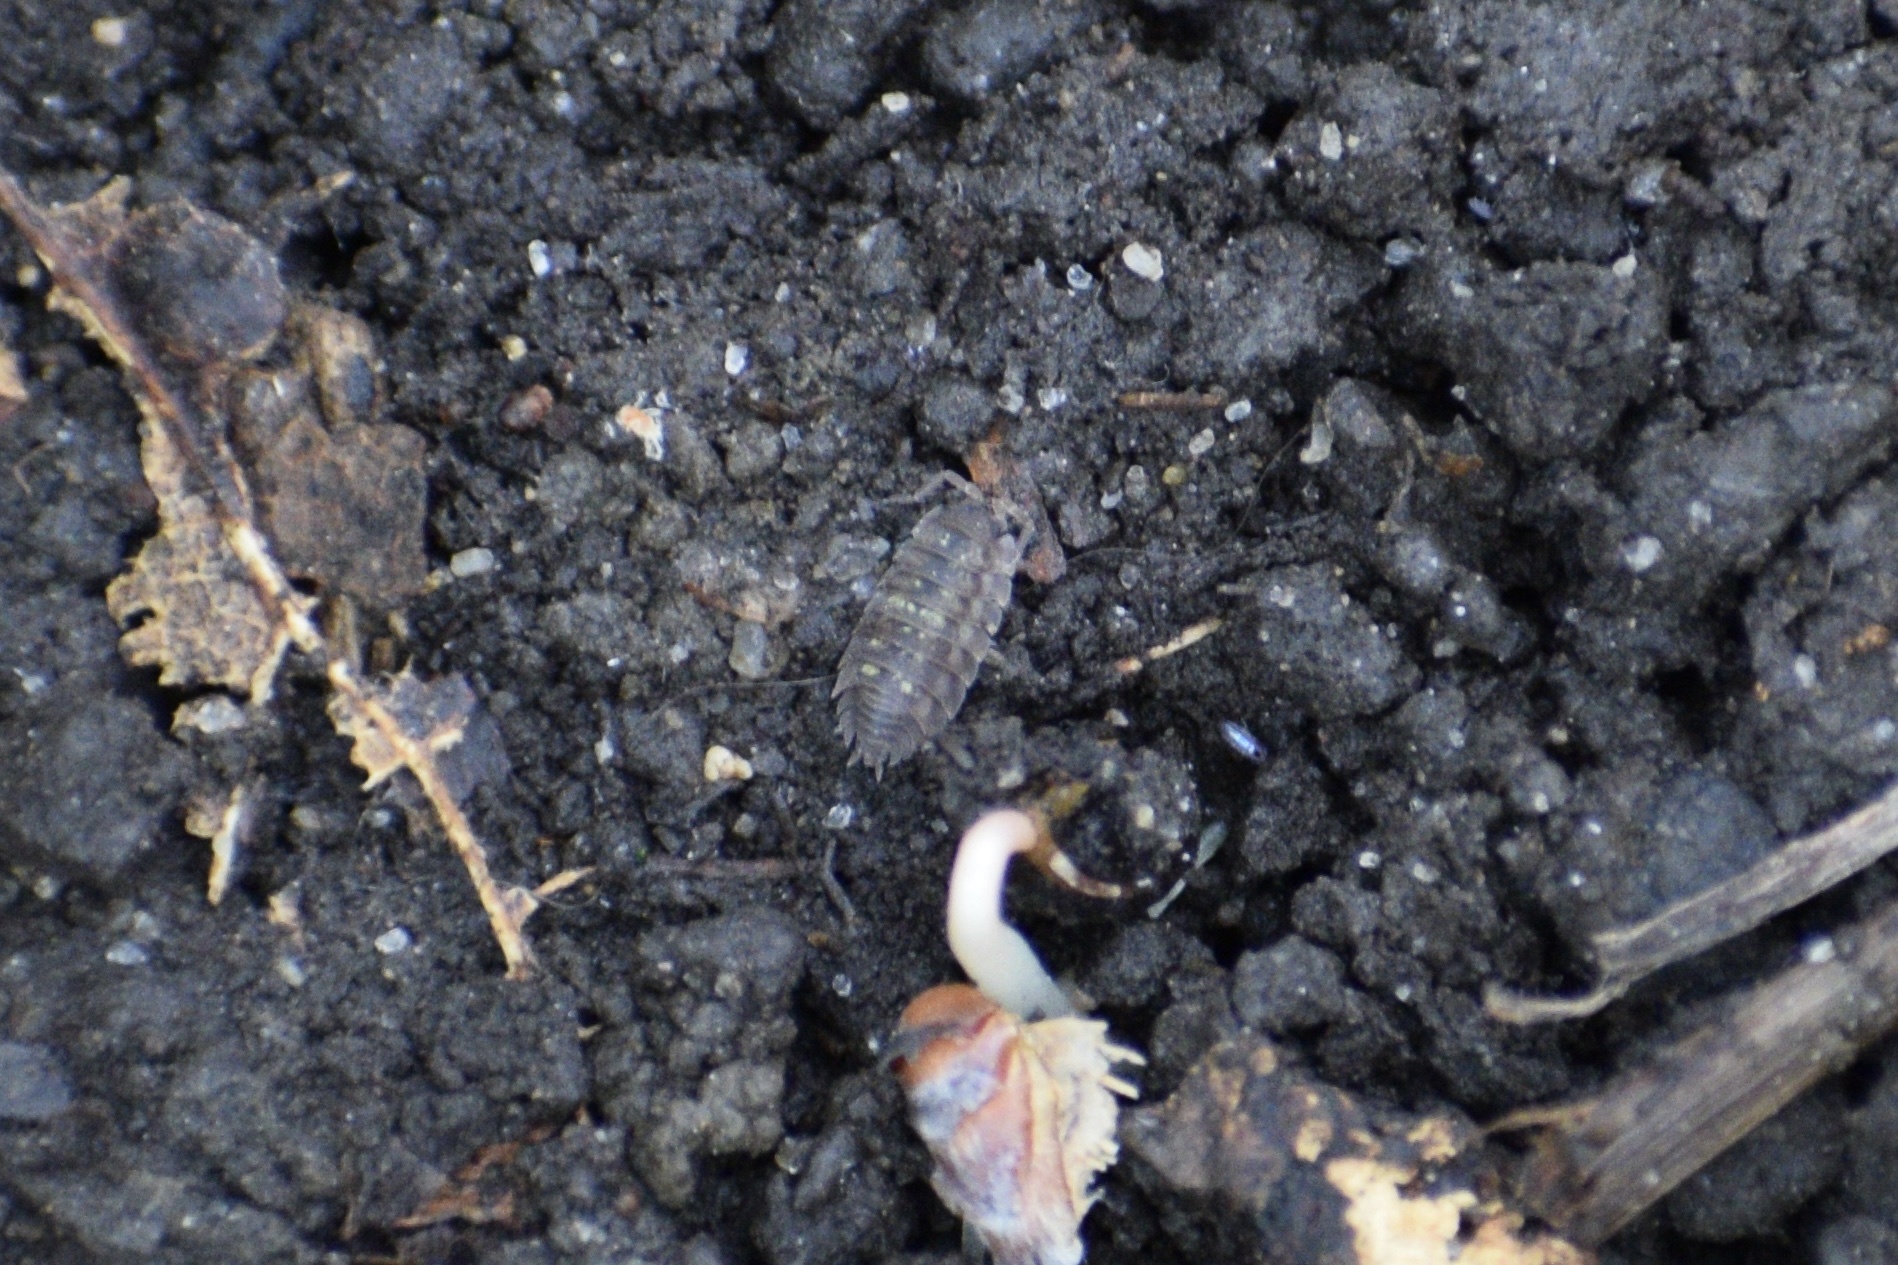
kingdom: Animalia
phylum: Arthropoda
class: Malacostraca
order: Isopoda
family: Porcellionidae
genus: Porcellio
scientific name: Porcellio scaber
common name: Common rough woodlouse
